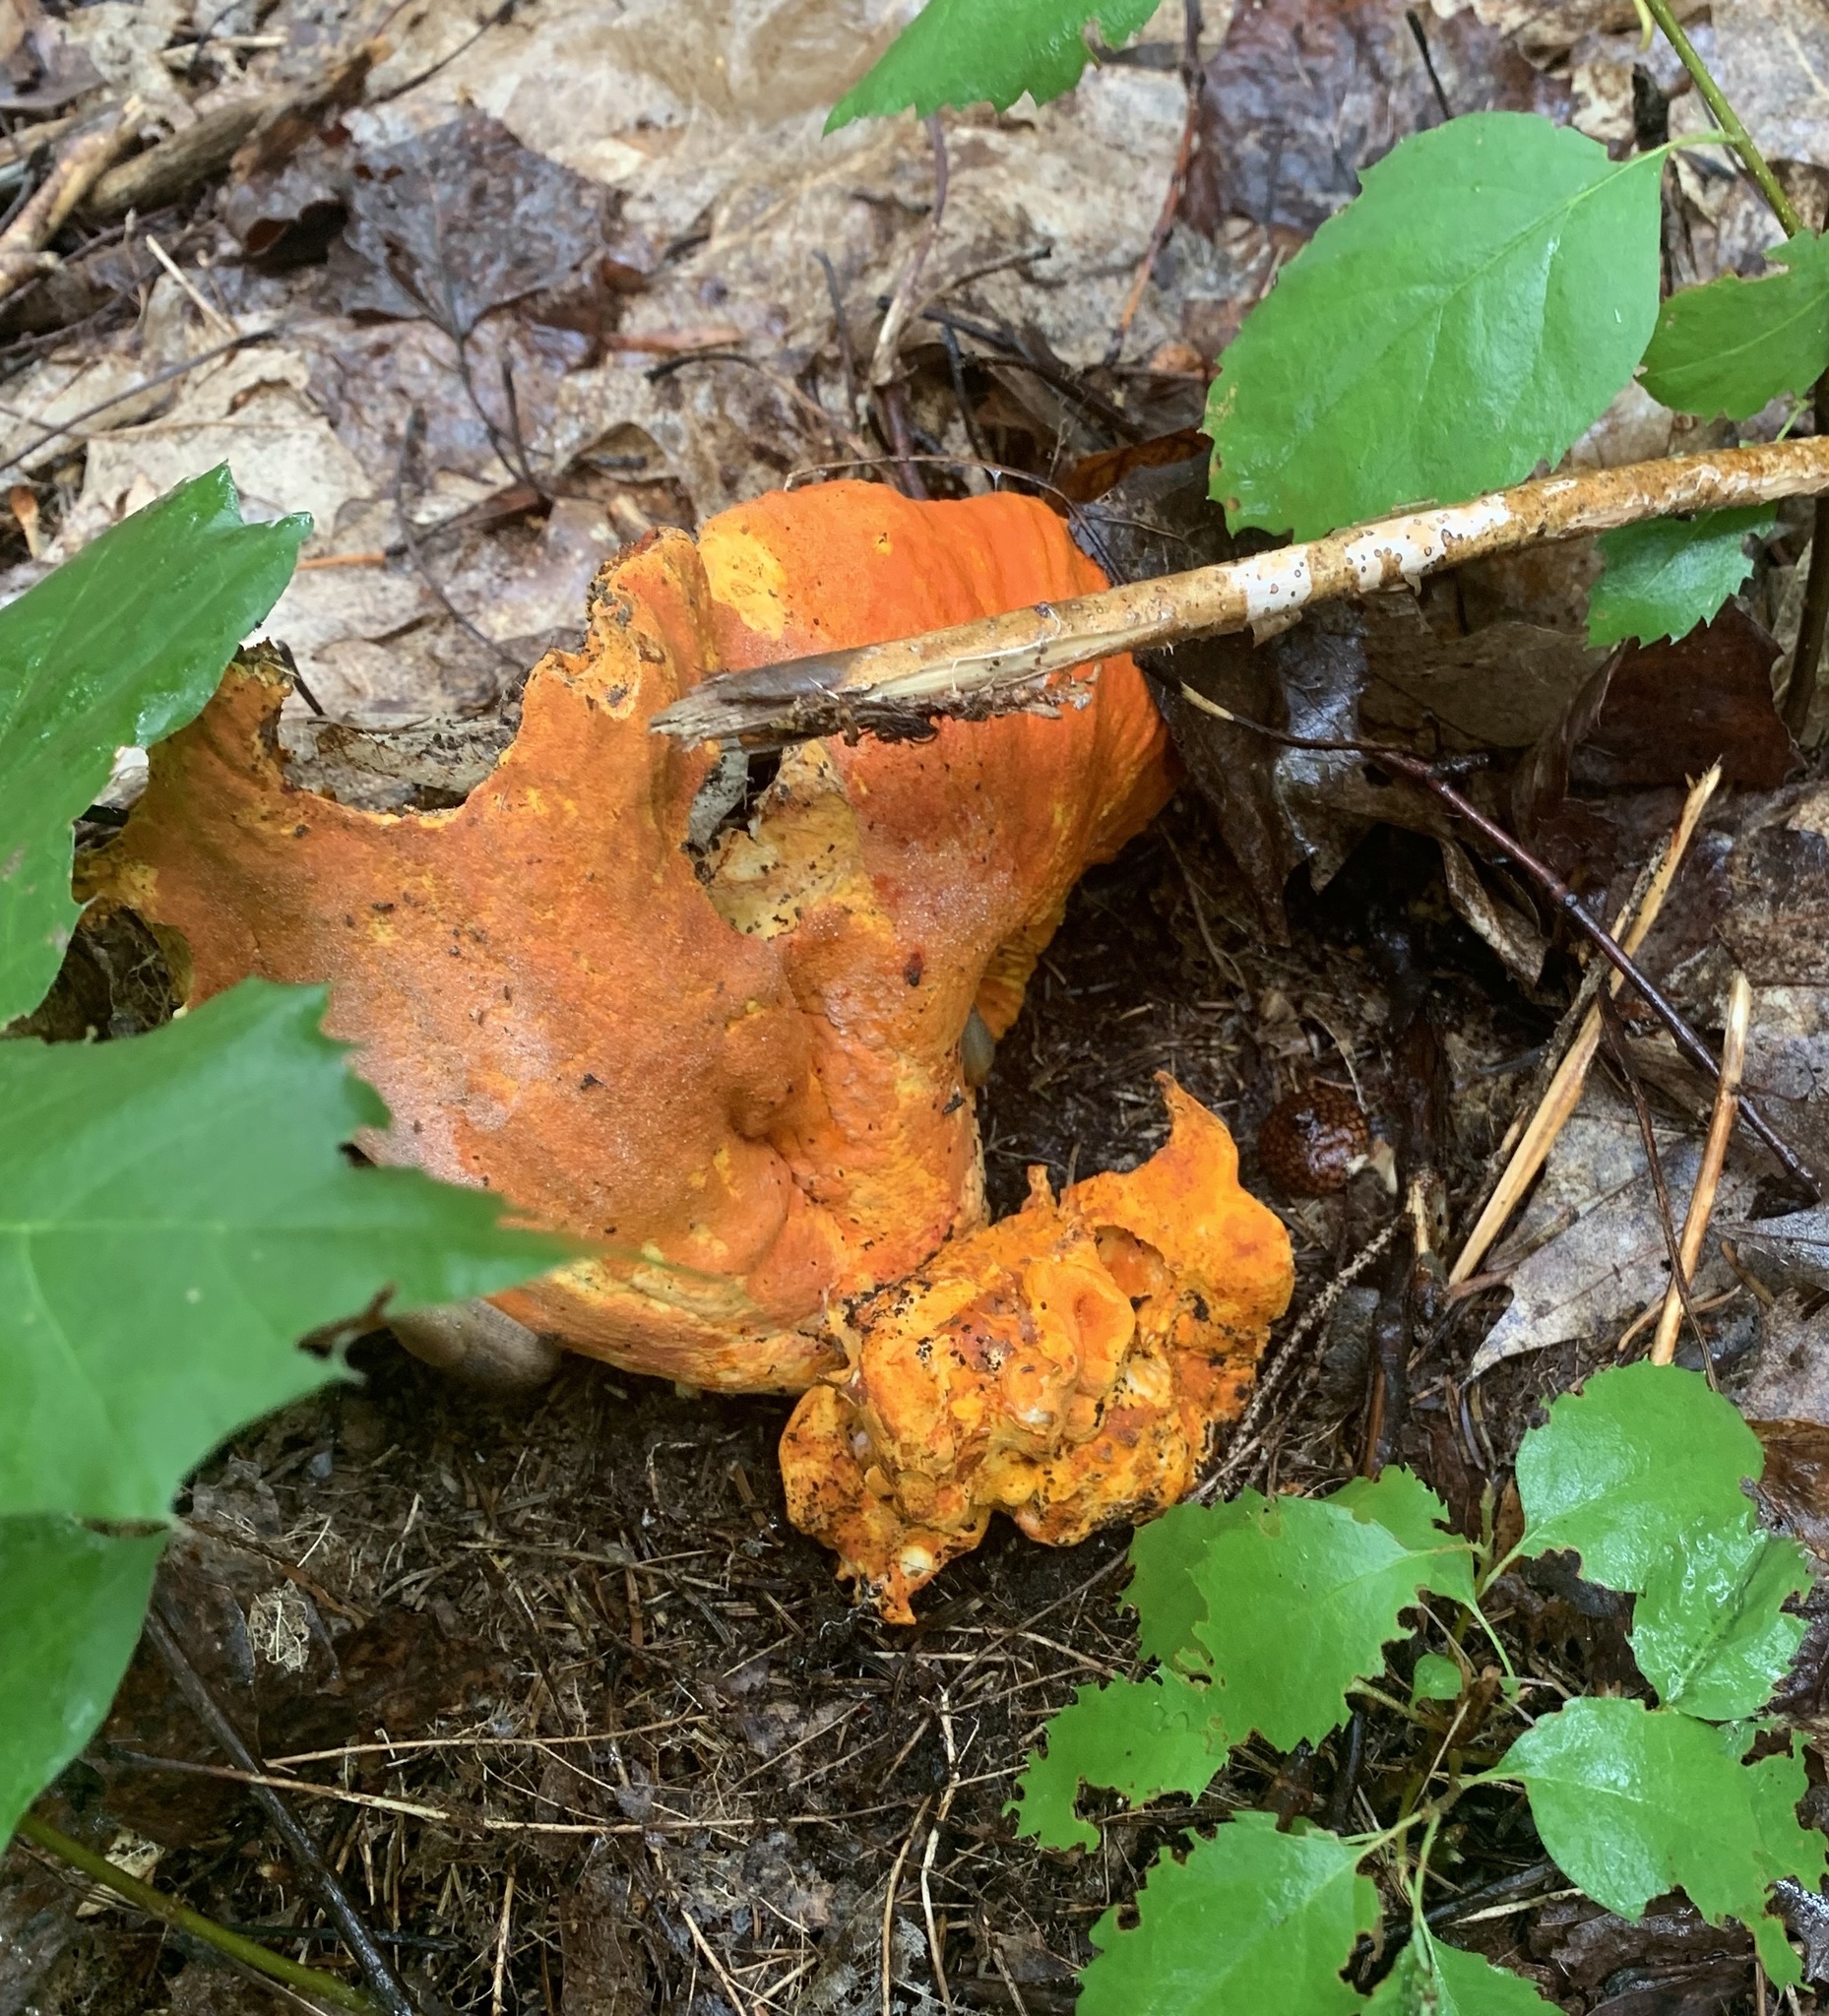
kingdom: Fungi
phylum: Ascomycota
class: Sordariomycetes
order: Hypocreales
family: Hypocreaceae
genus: Hypomyces
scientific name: Hypomyces lactifluorum
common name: Lobster mushroom
